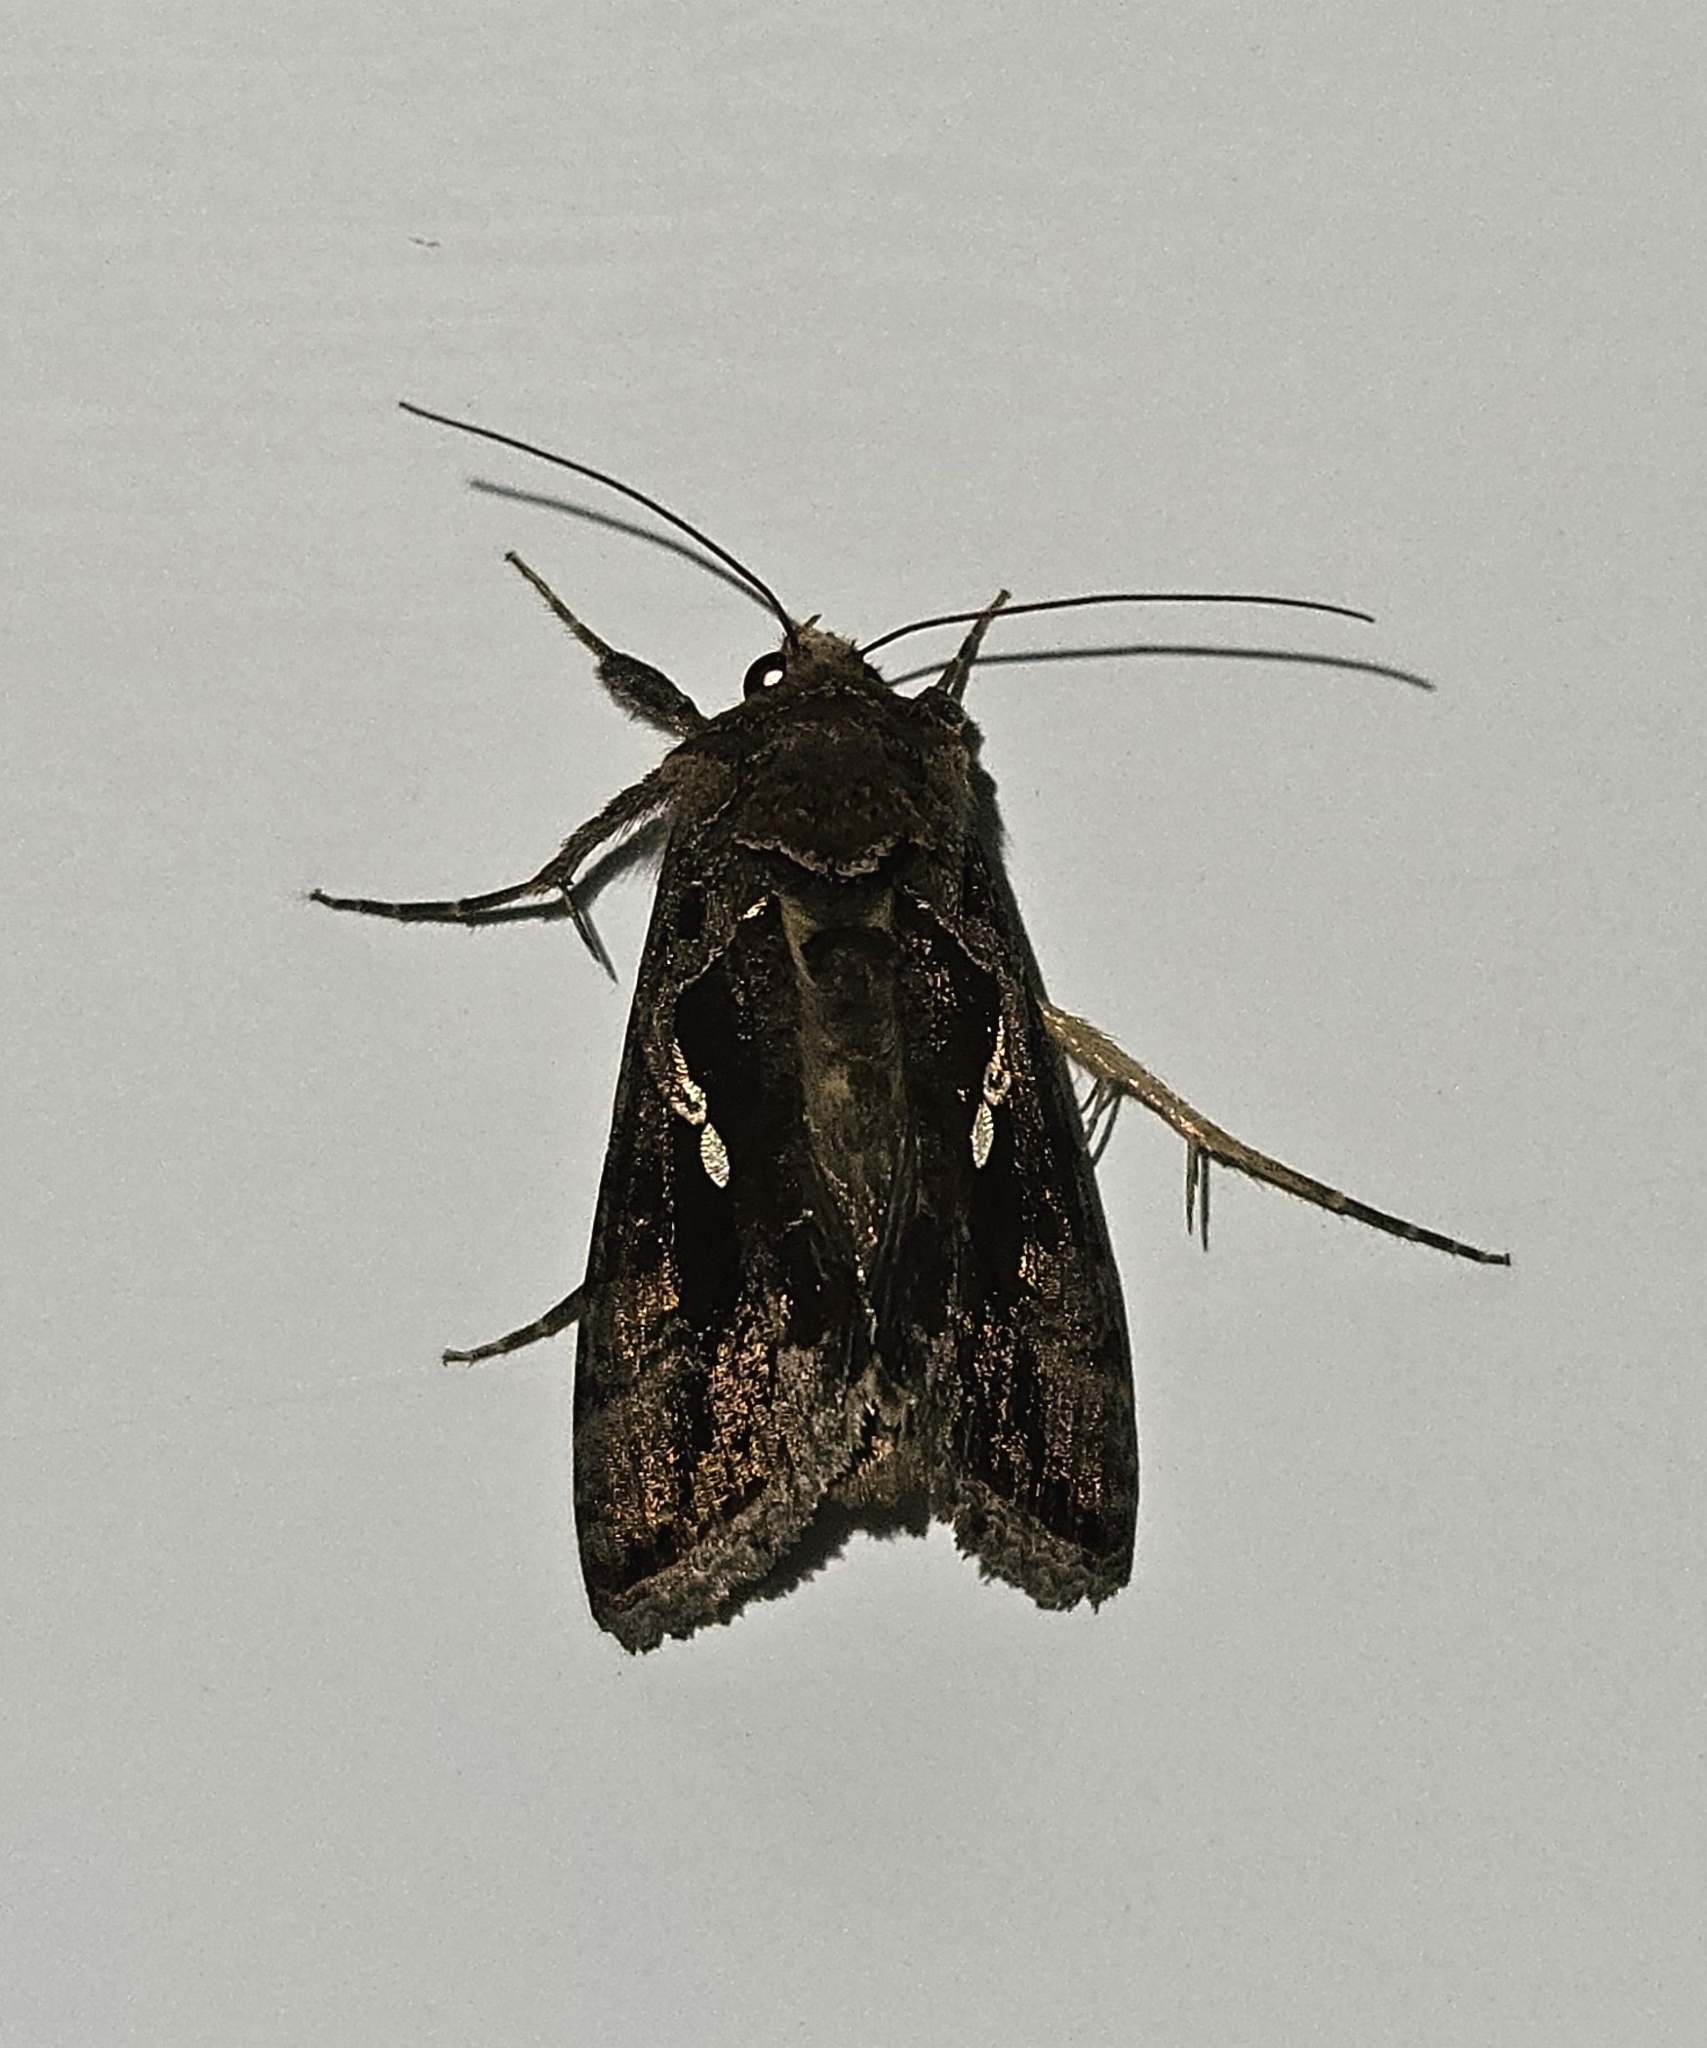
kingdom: Animalia
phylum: Arthropoda
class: Insecta
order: Lepidoptera
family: Noctuidae
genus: Chrysodeixis
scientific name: Chrysodeixis eriosoma
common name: Green garden looper
